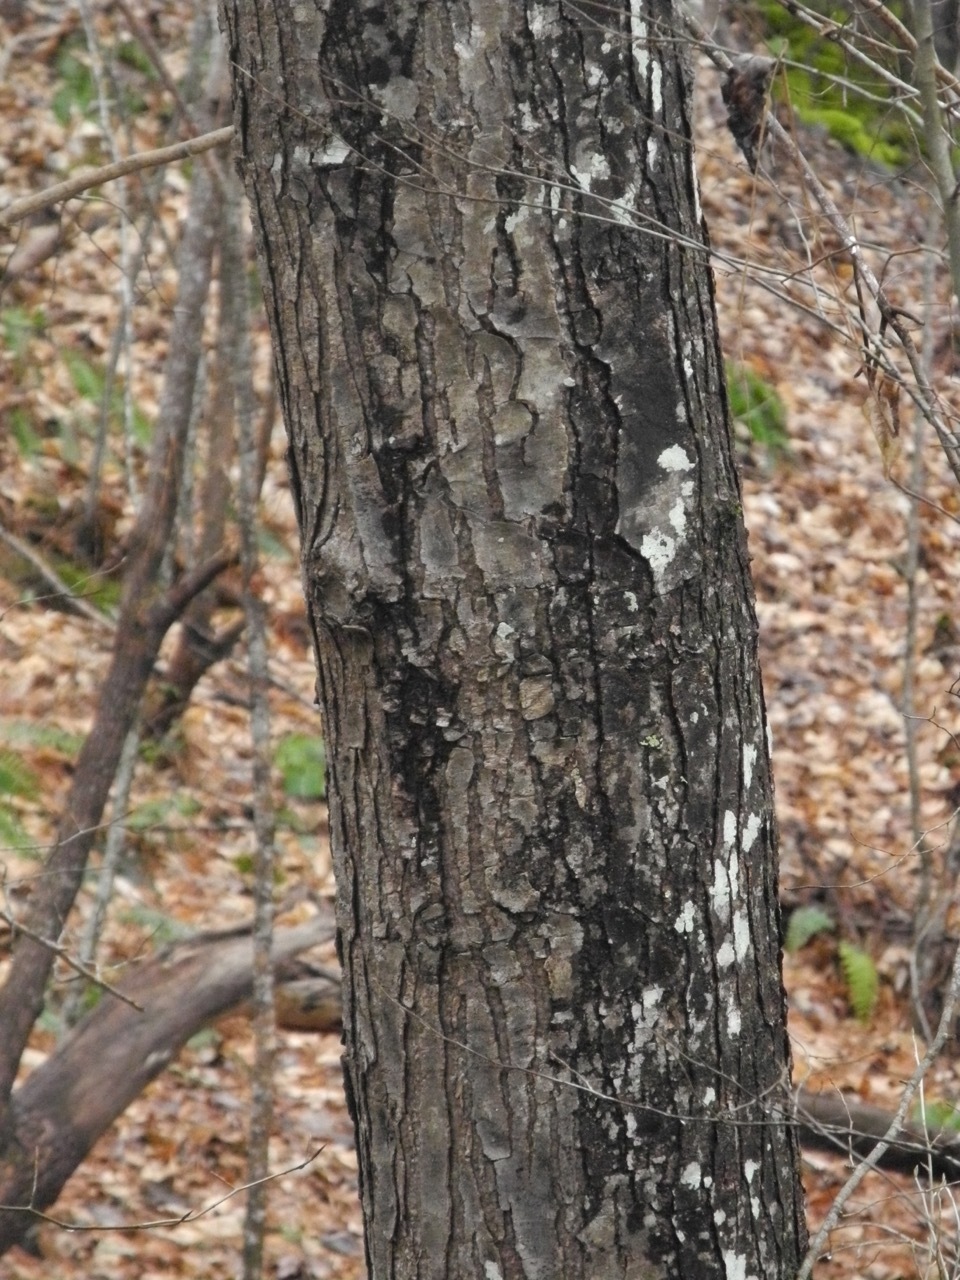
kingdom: Plantae
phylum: Tracheophyta
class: Magnoliopsida
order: Sapindales
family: Sapindaceae
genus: Acer
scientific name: Acer freemanii
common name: Freeman maple
